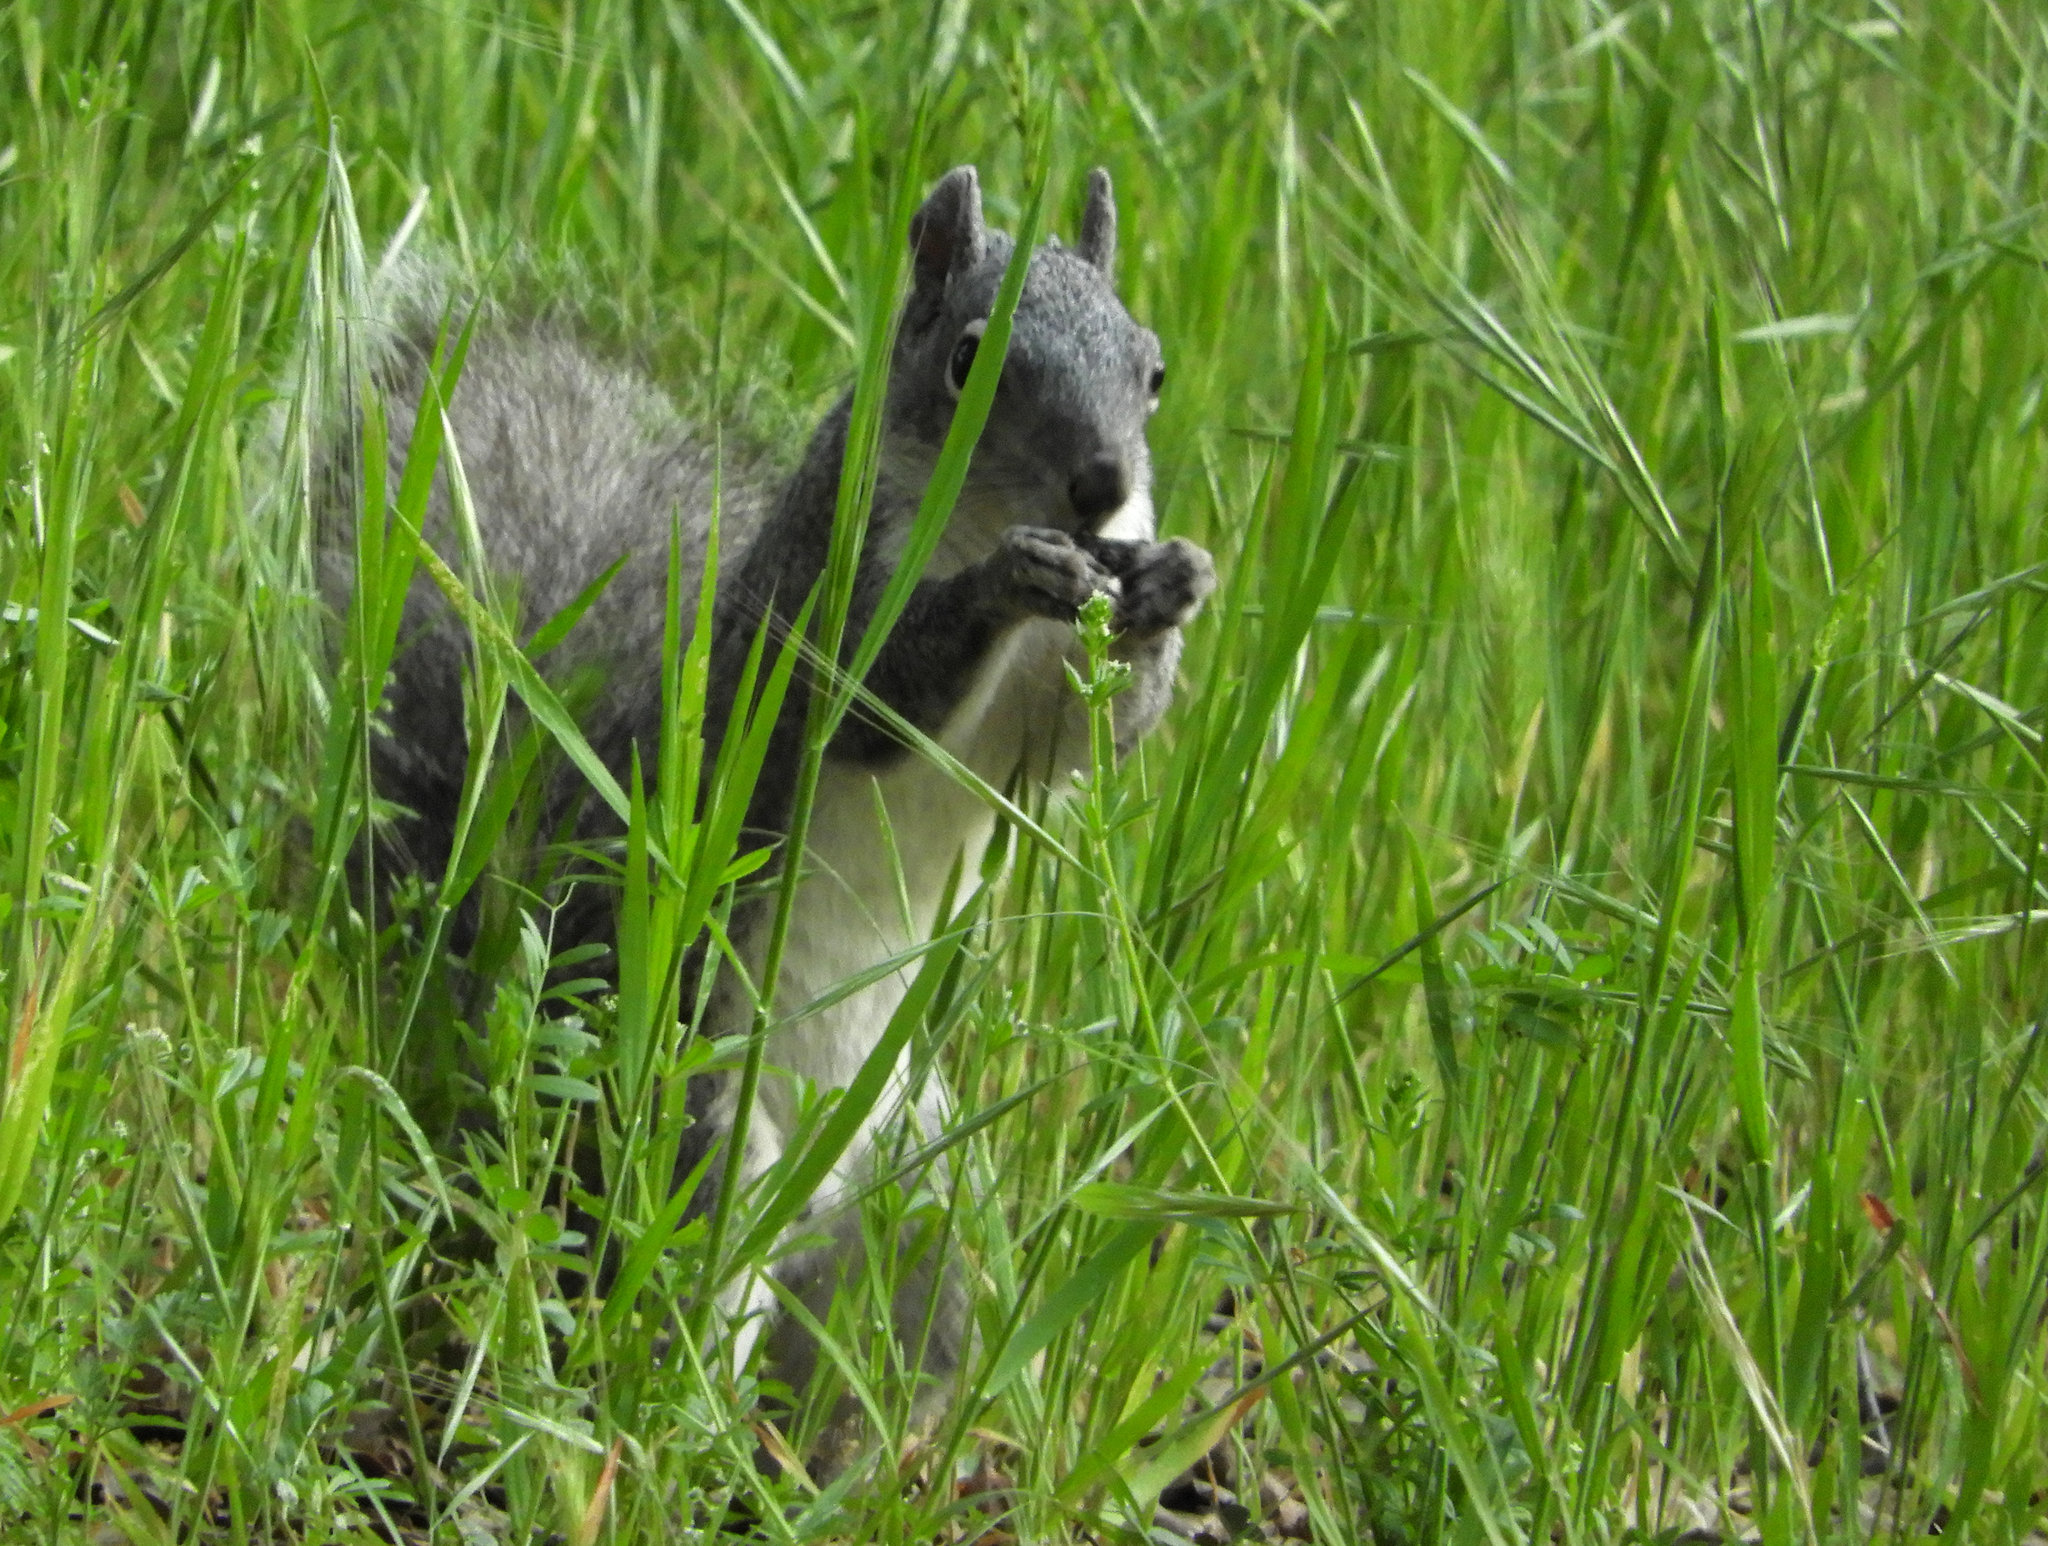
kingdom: Animalia
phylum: Chordata
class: Mammalia
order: Rodentia
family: Sciuridae
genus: Sciurus
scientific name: Sciurus griseus
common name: Western gray squirrel
